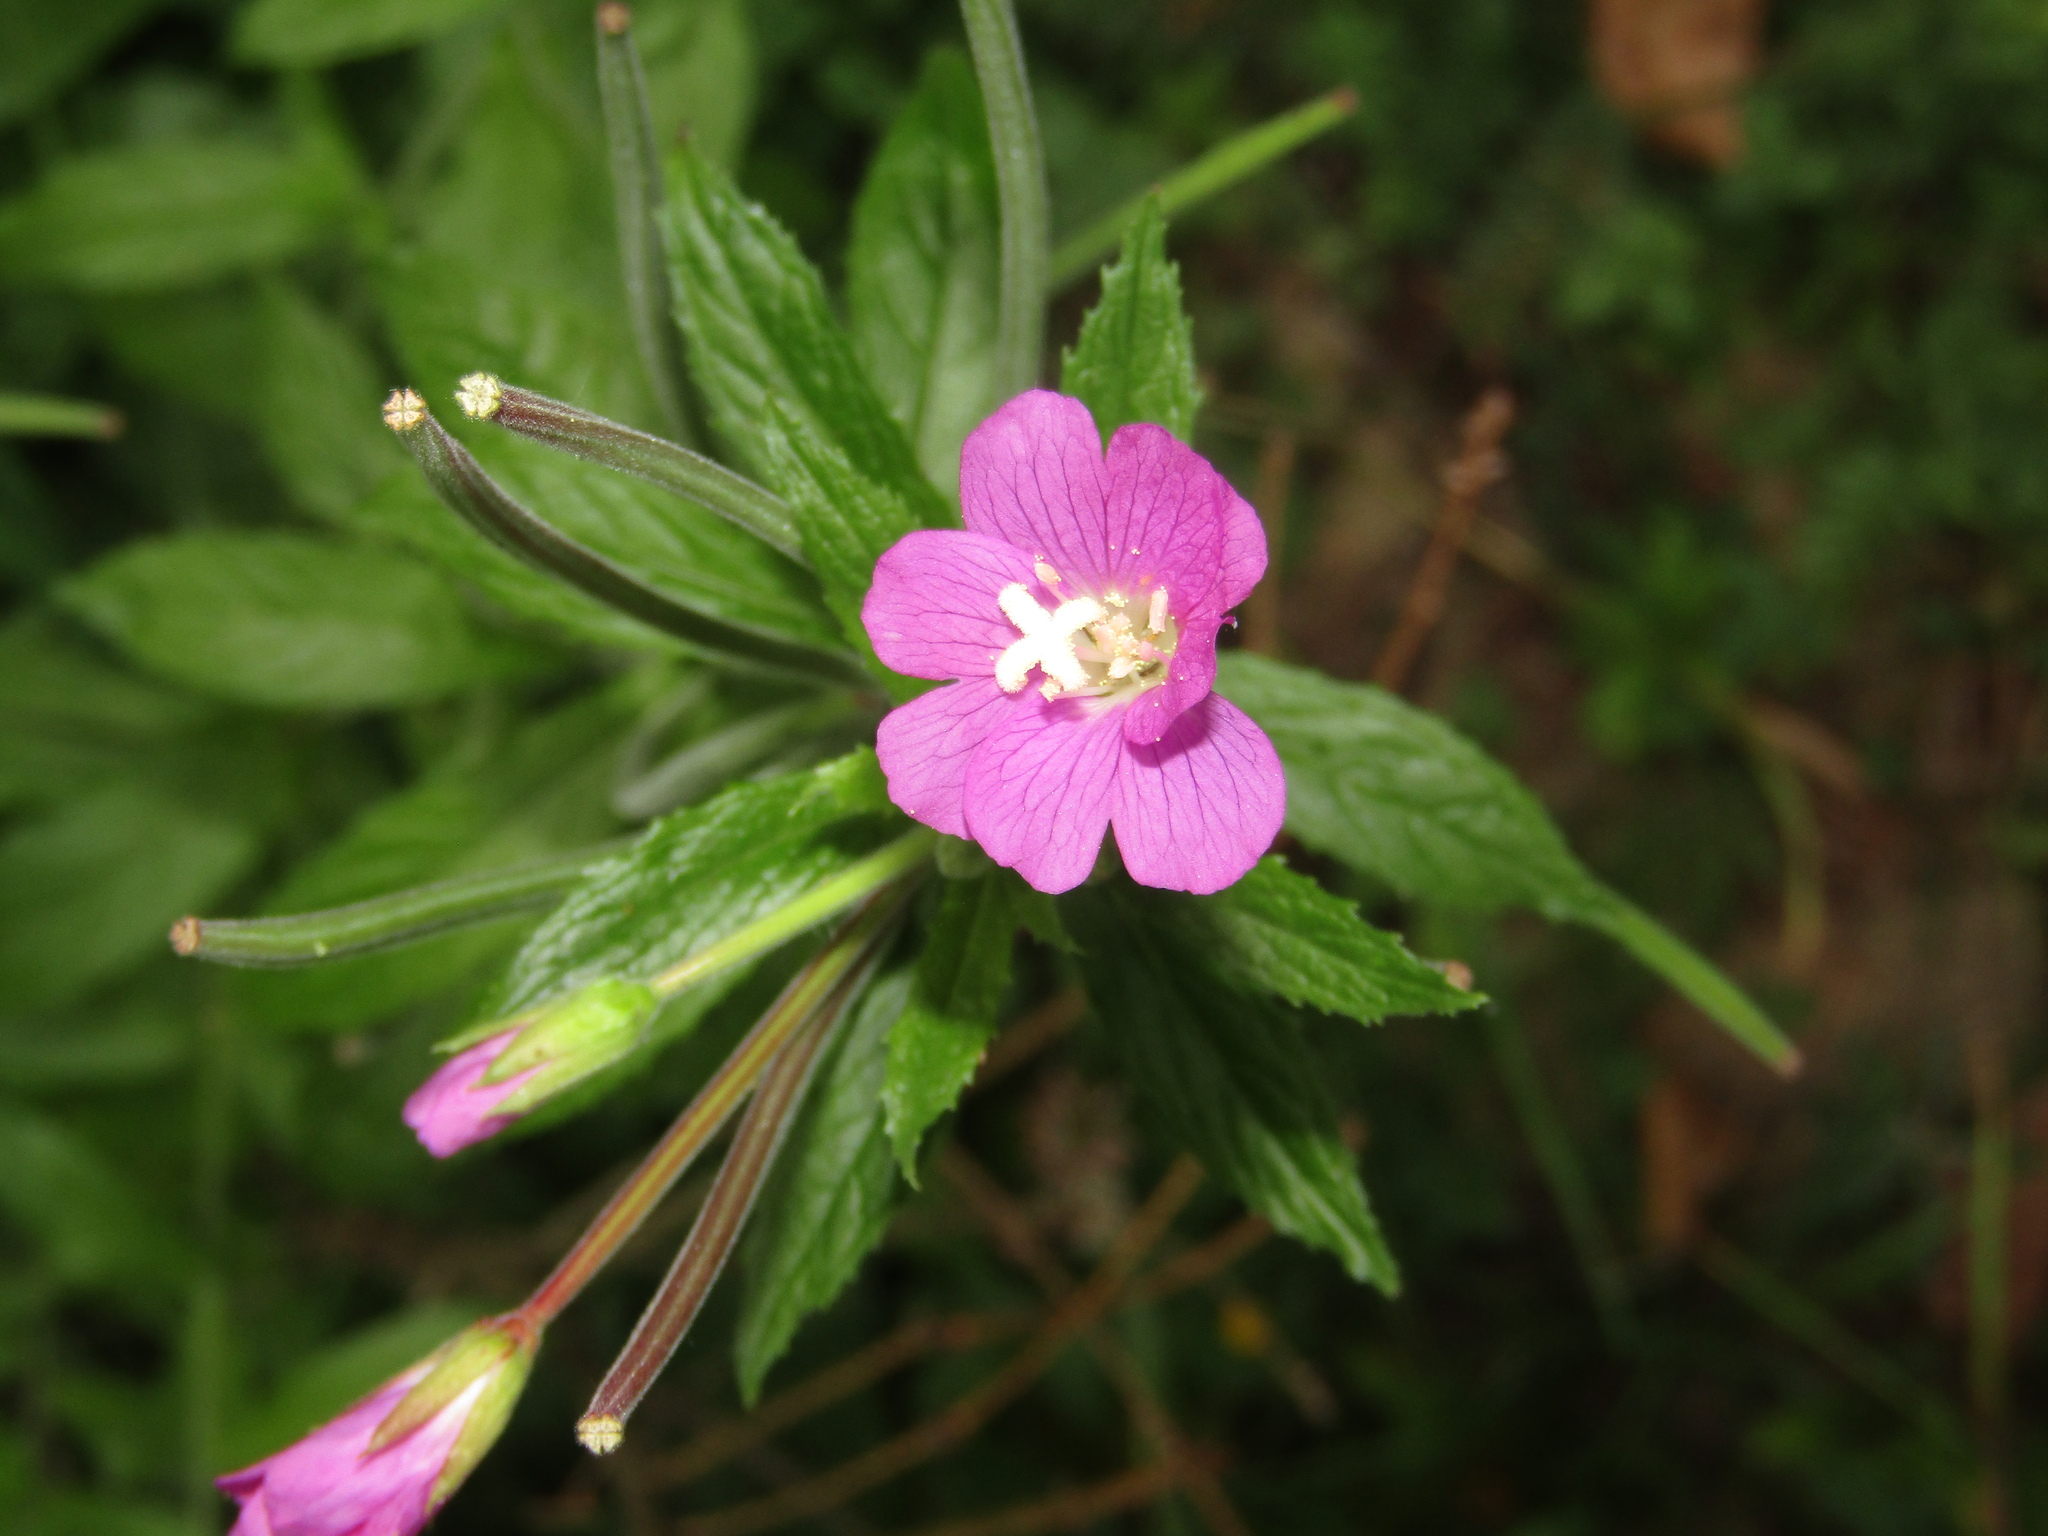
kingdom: Plantae
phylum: Tracheophyta
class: Magnoliopsida
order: Myrtales
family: Onagraceae
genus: Epilobium
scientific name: Epilobium hirsutum
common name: Great willowherb
